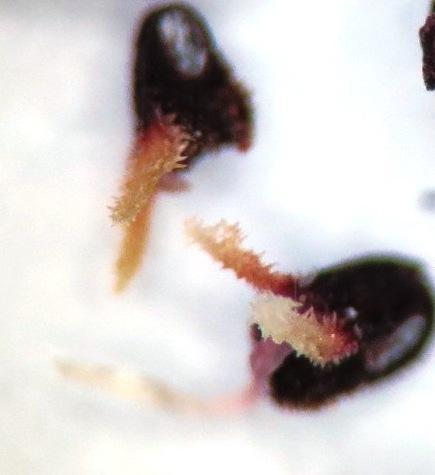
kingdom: Plantae
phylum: Tracheophyta
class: Magnoliopsida
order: Ericales
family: Ericaceae
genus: Erica
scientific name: Erica tenella
